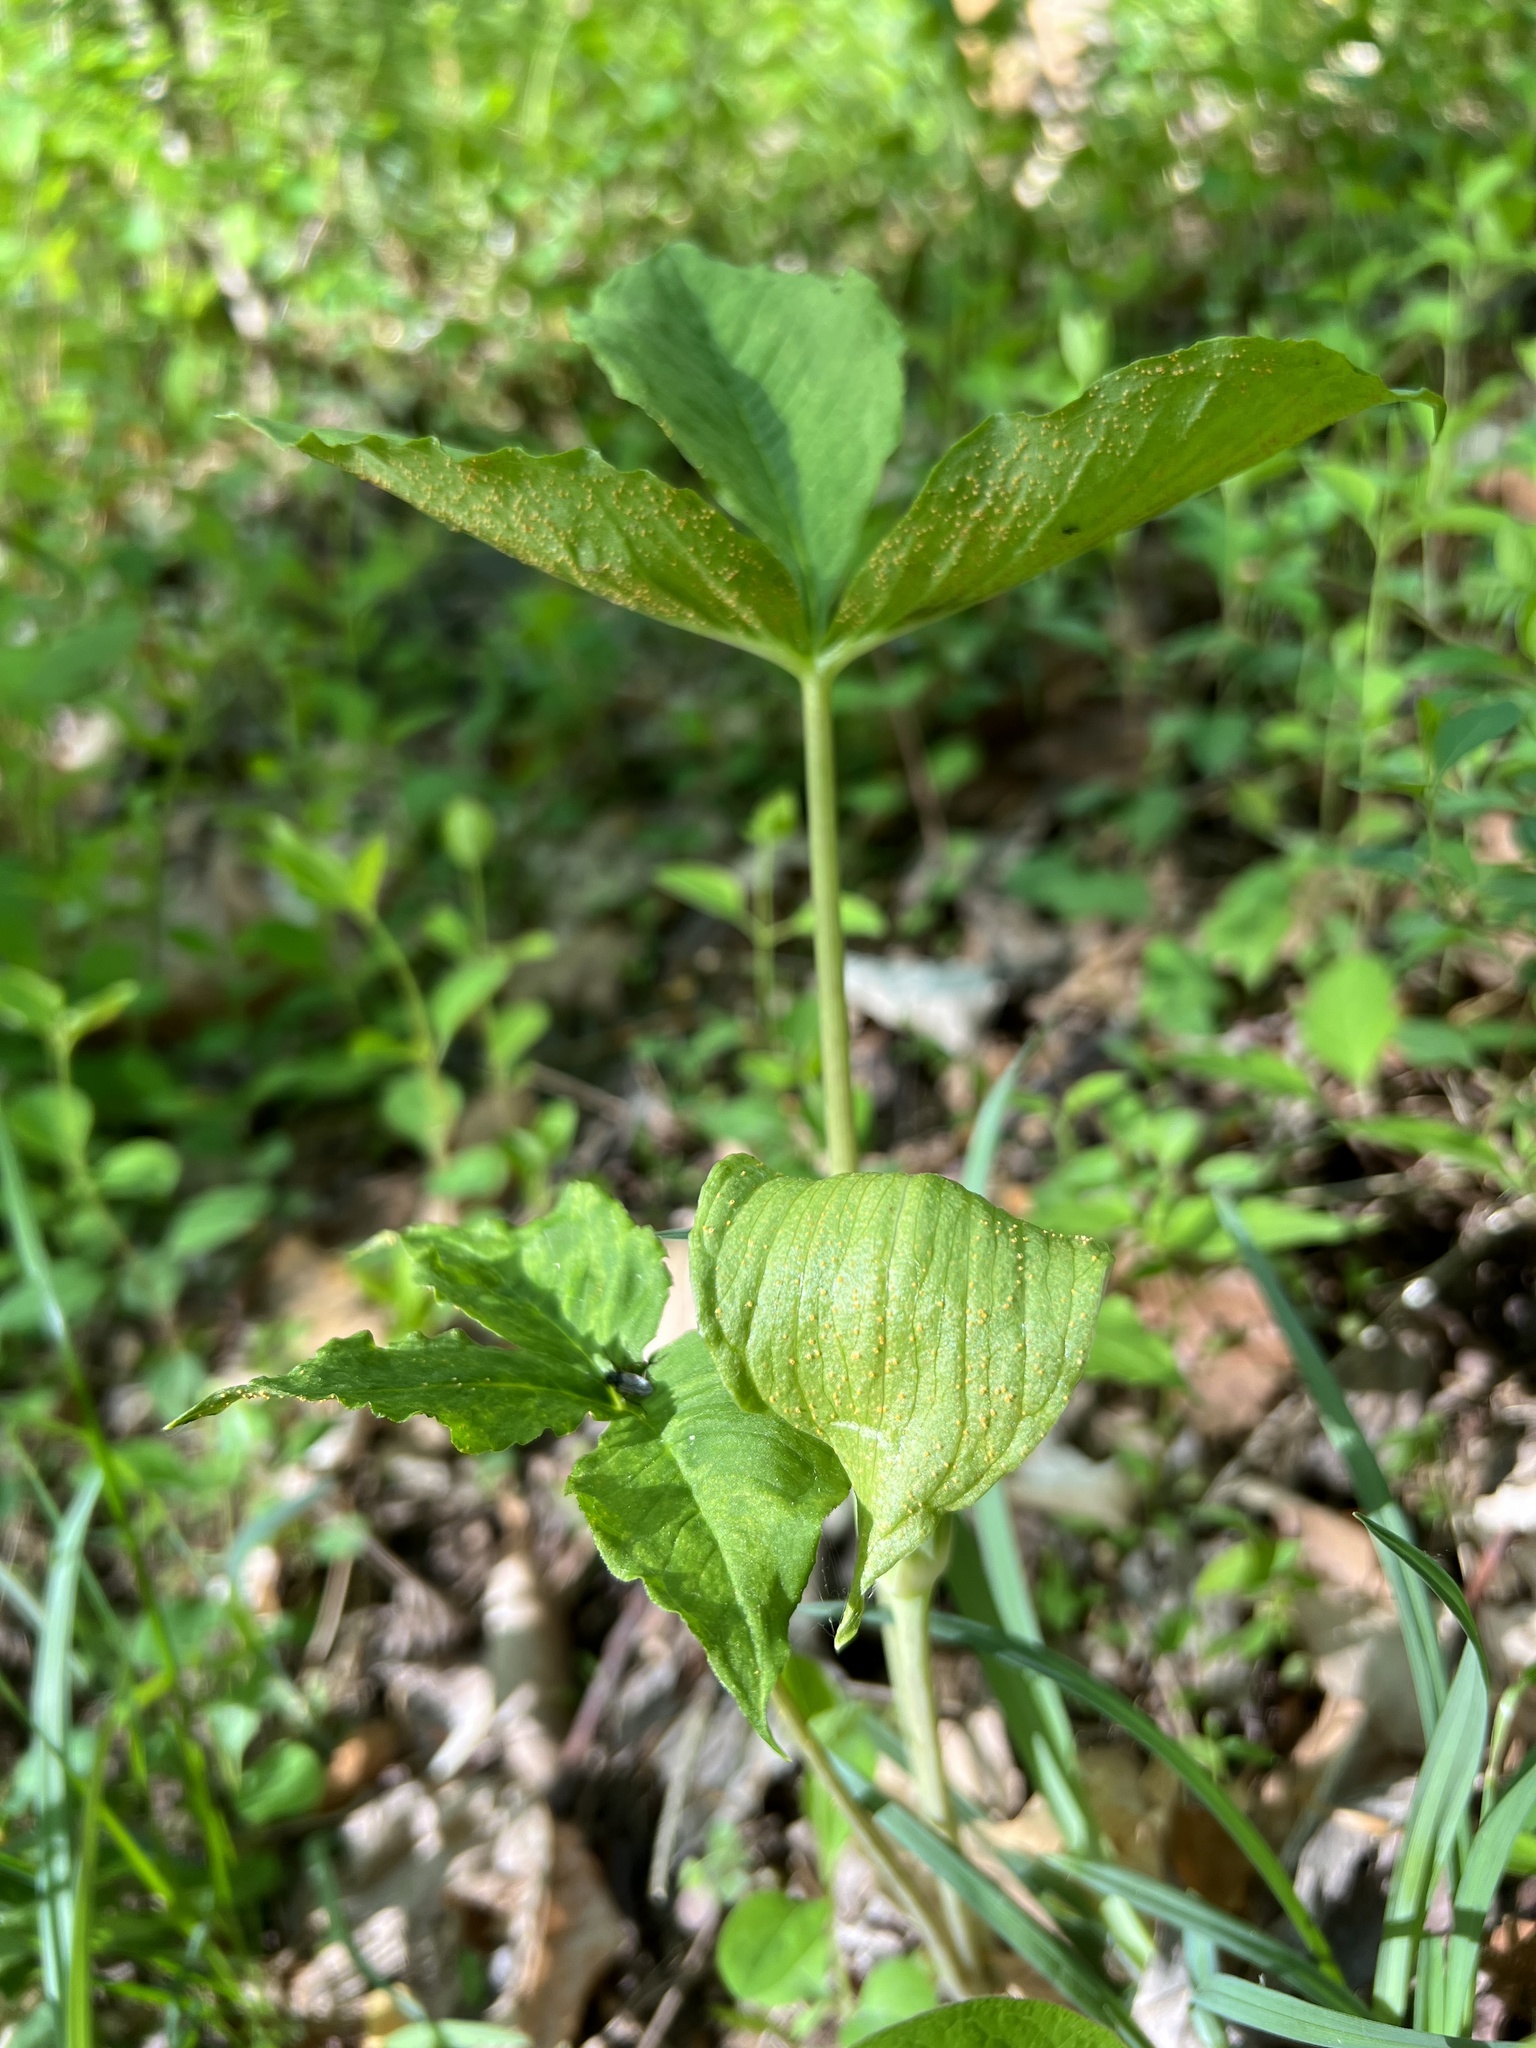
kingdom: Fungi
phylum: Basidiomycota
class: Pucciniomycetes
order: Pucciniales
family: Pucciniaceae
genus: Uromyces
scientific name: Uromyces ari-triphylli
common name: Jack-in-the-pulpit rust
